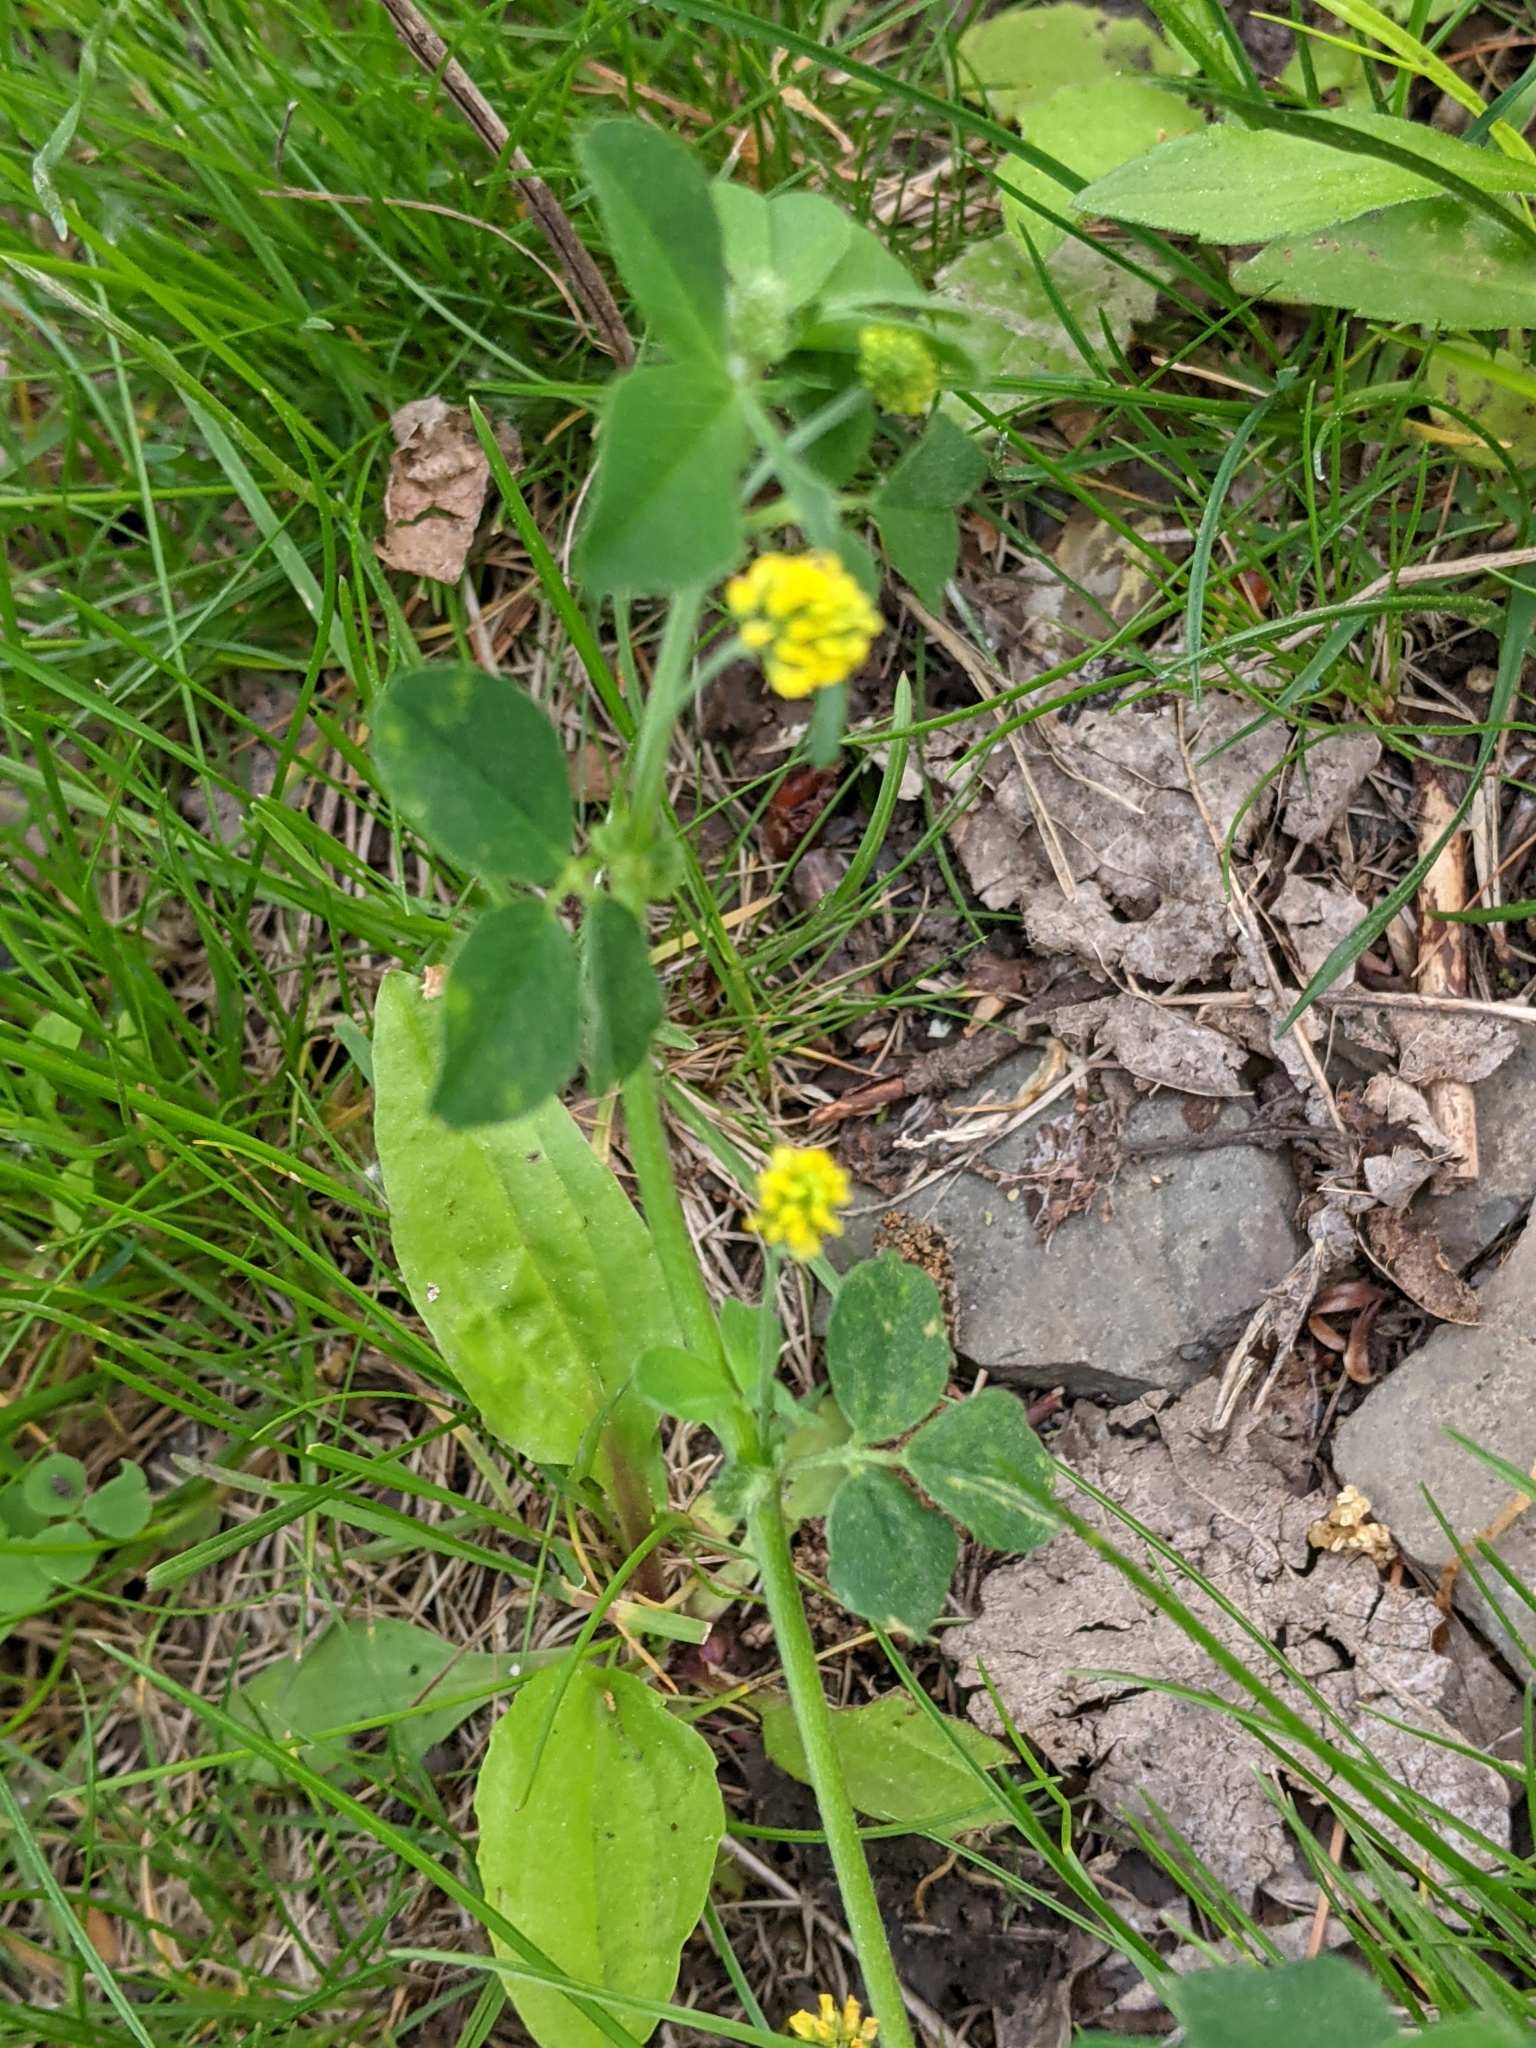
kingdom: Plantae
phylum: Tracheophyta
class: Magnoliopsida
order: Fabales
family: Fabaceae
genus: Medicago
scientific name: Medicago lupulina
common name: Black medick
